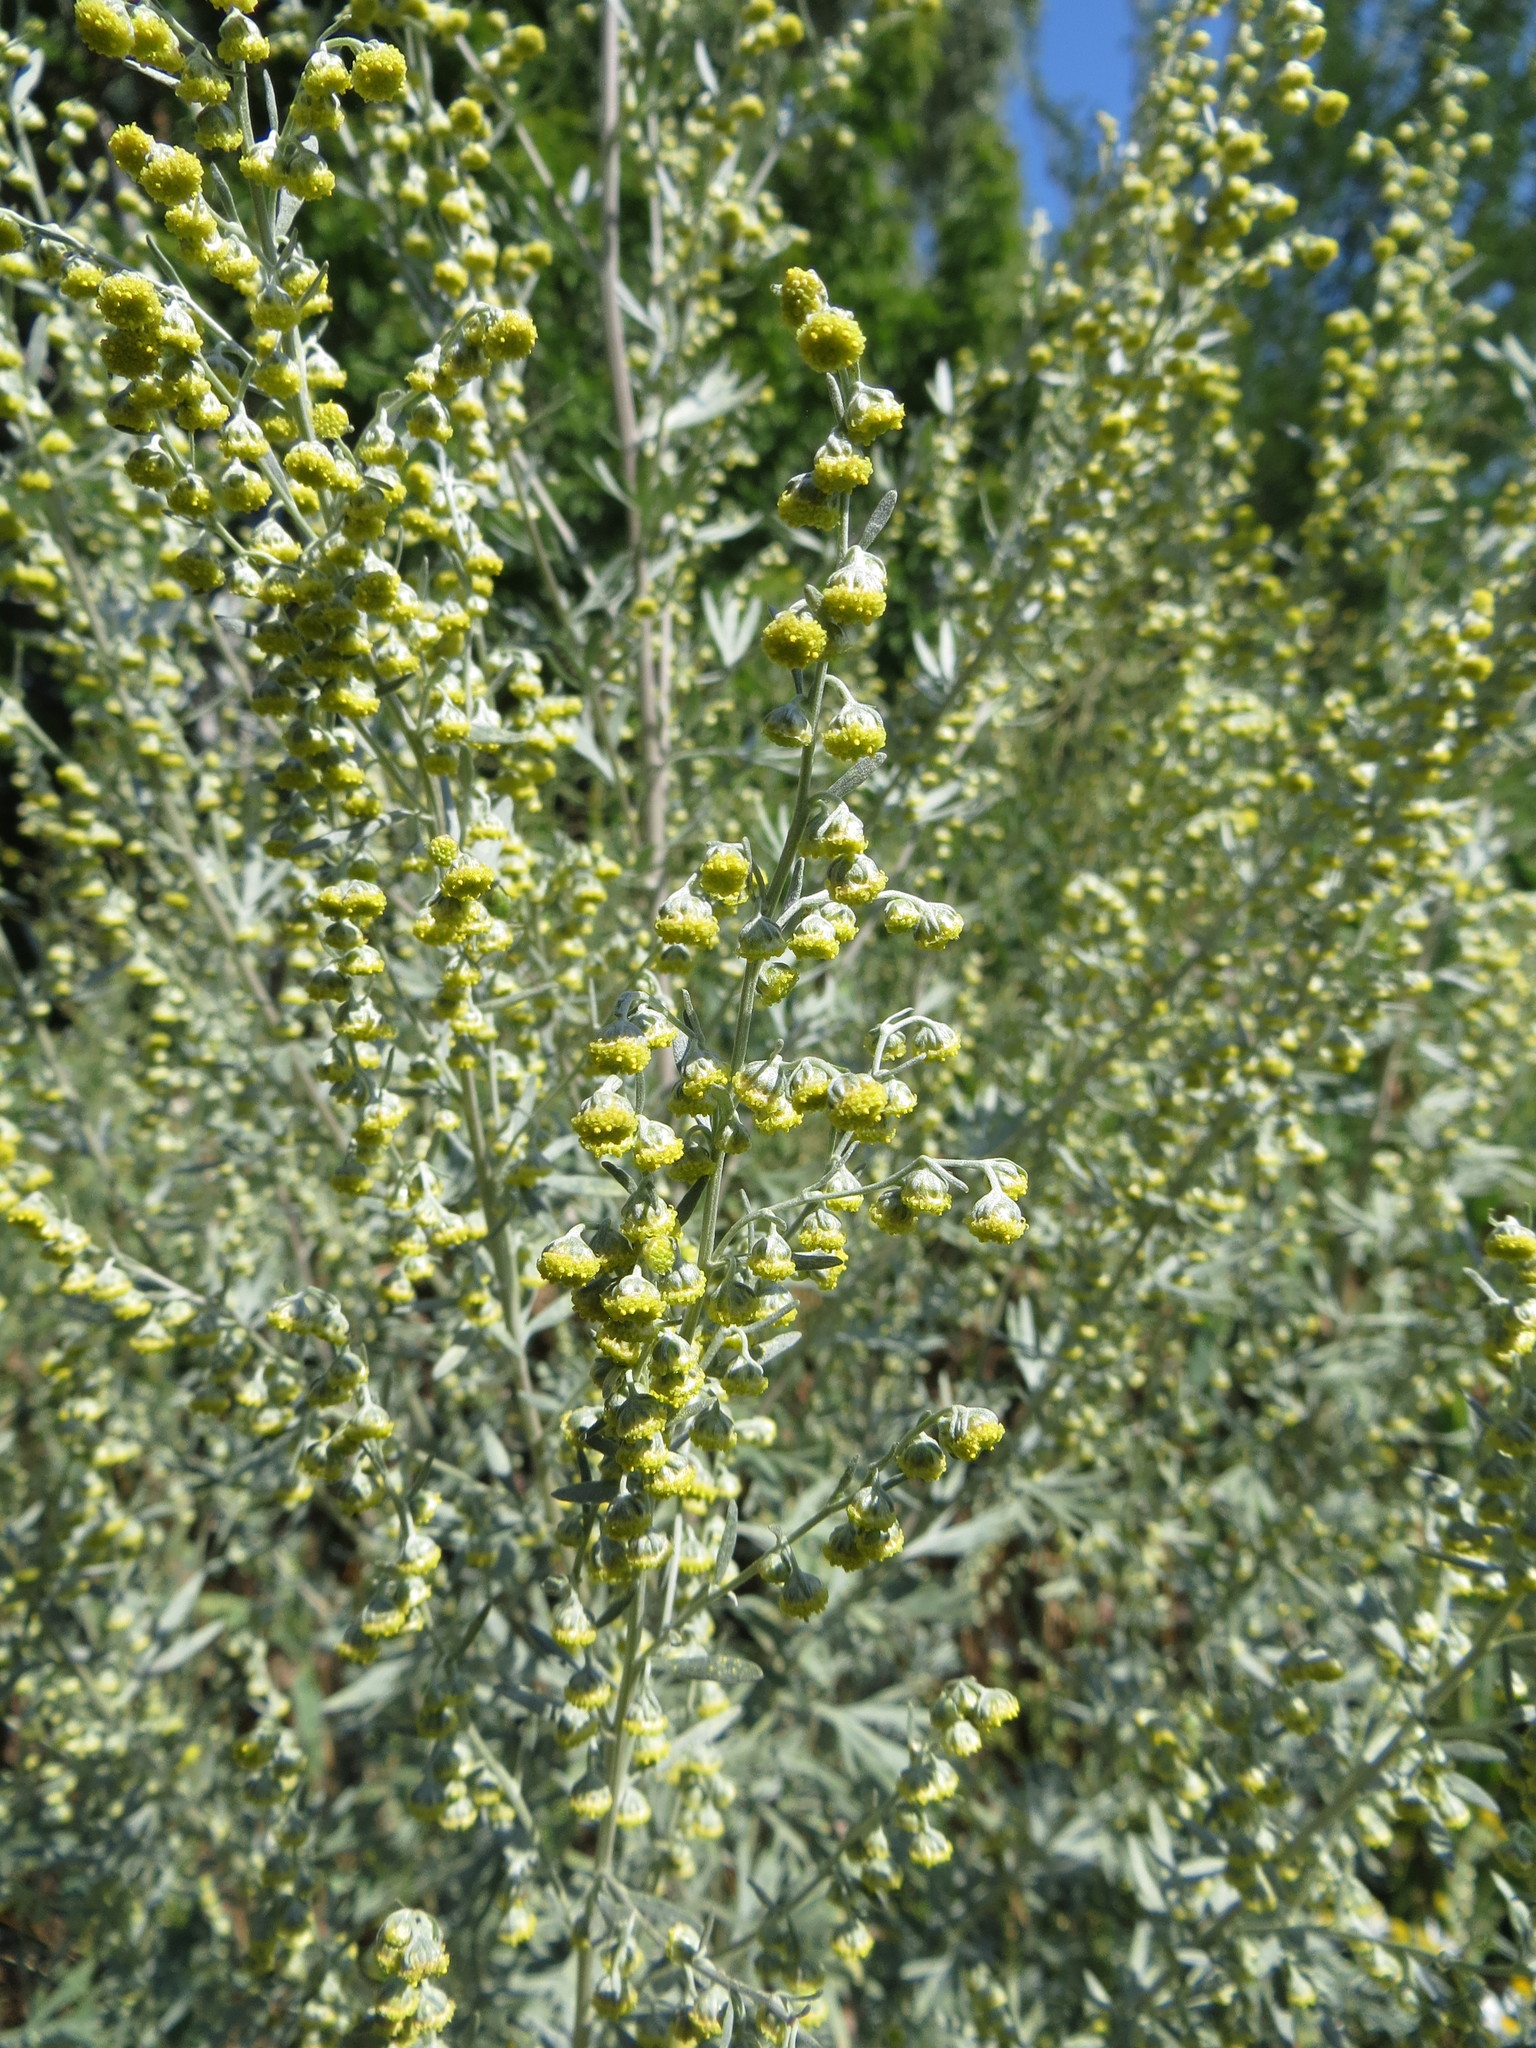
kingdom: Plantae
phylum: Tracheophyta
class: Magnoliopsida
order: Asterales
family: Asteraceae
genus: Artemisia
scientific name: Artemisia absinthium
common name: Wormwood
